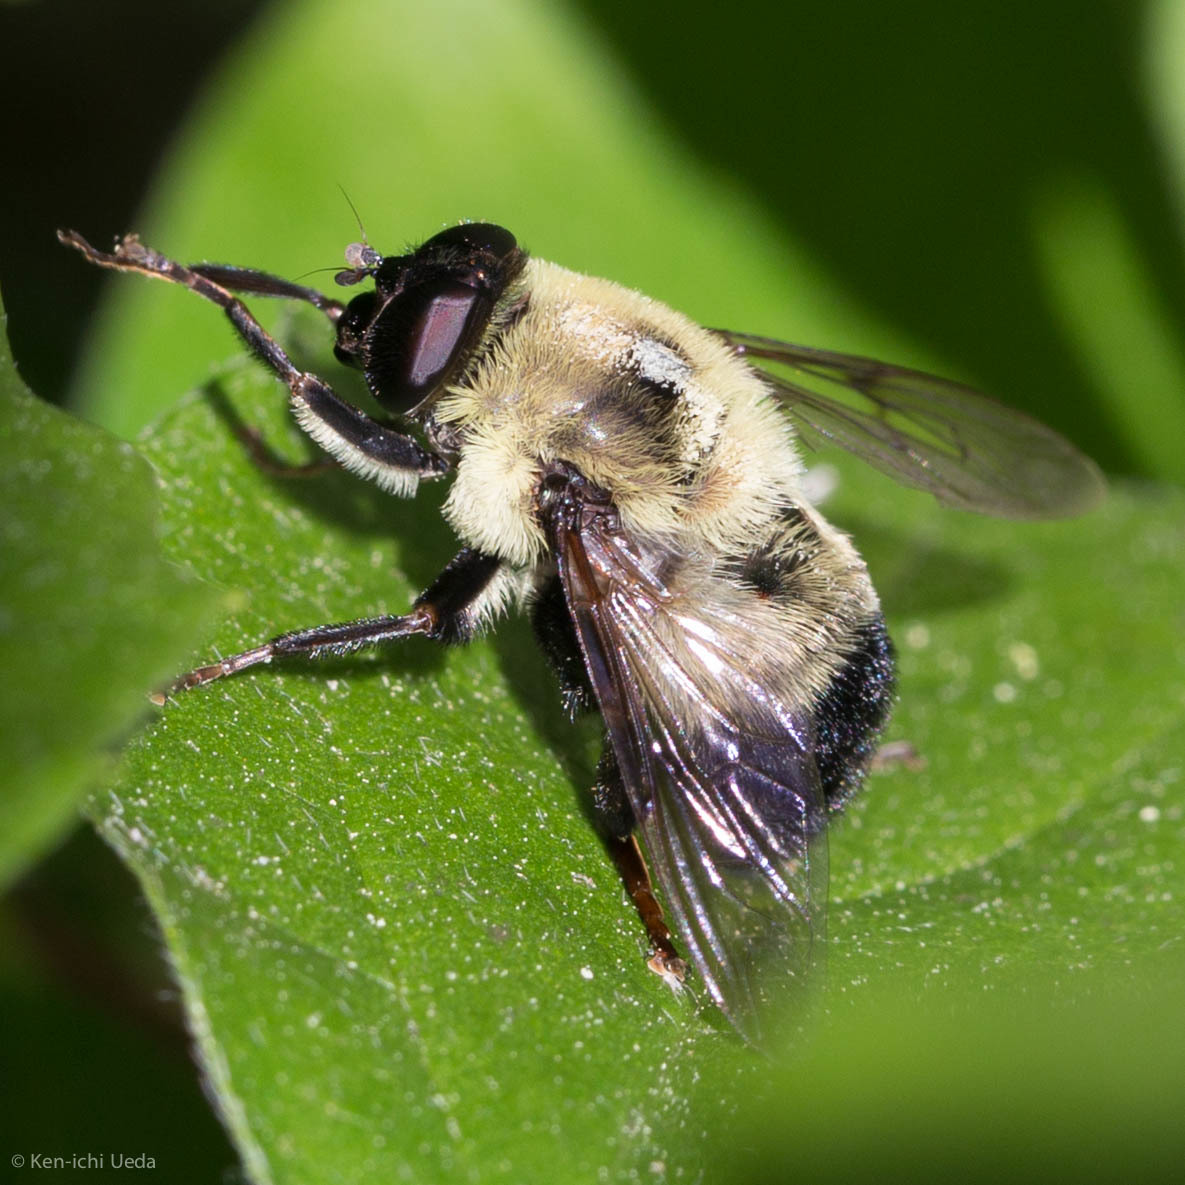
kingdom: Animalia
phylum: Arthropoda
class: Insecta
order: Diptera
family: Syrphidae
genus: Imatisma
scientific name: Imatisma posticata
